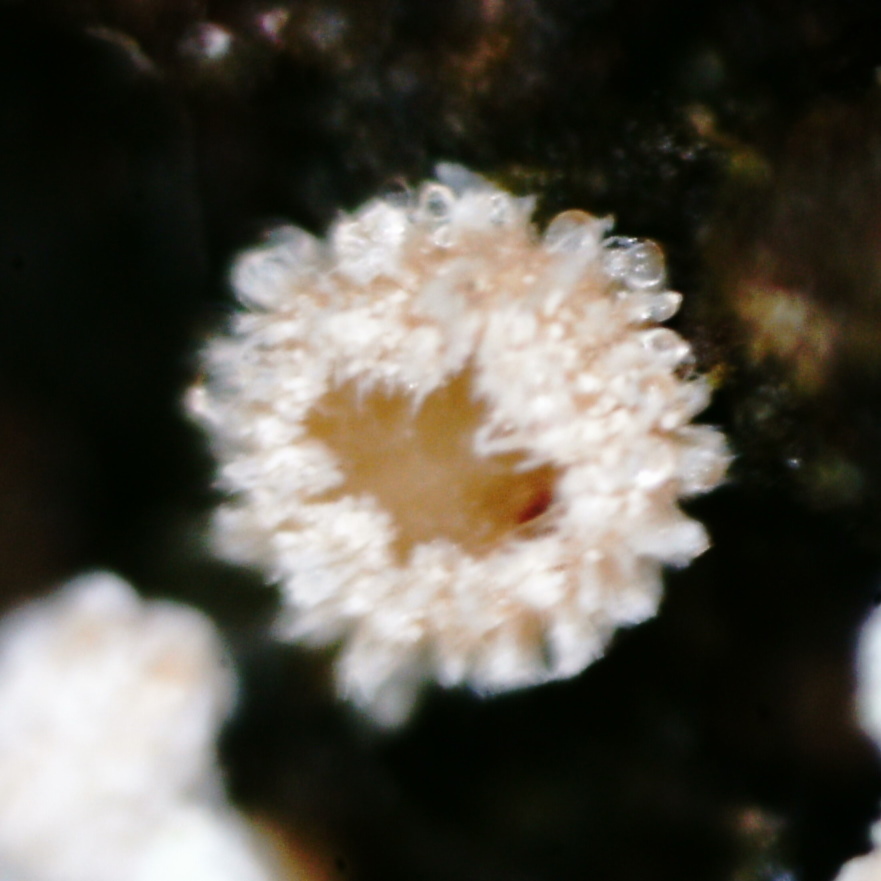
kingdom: Fungi
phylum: Ascomycota
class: Leotiomycetes
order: Helotiales
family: Lachnaceae
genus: Lachnum
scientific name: Lachnum corticale
